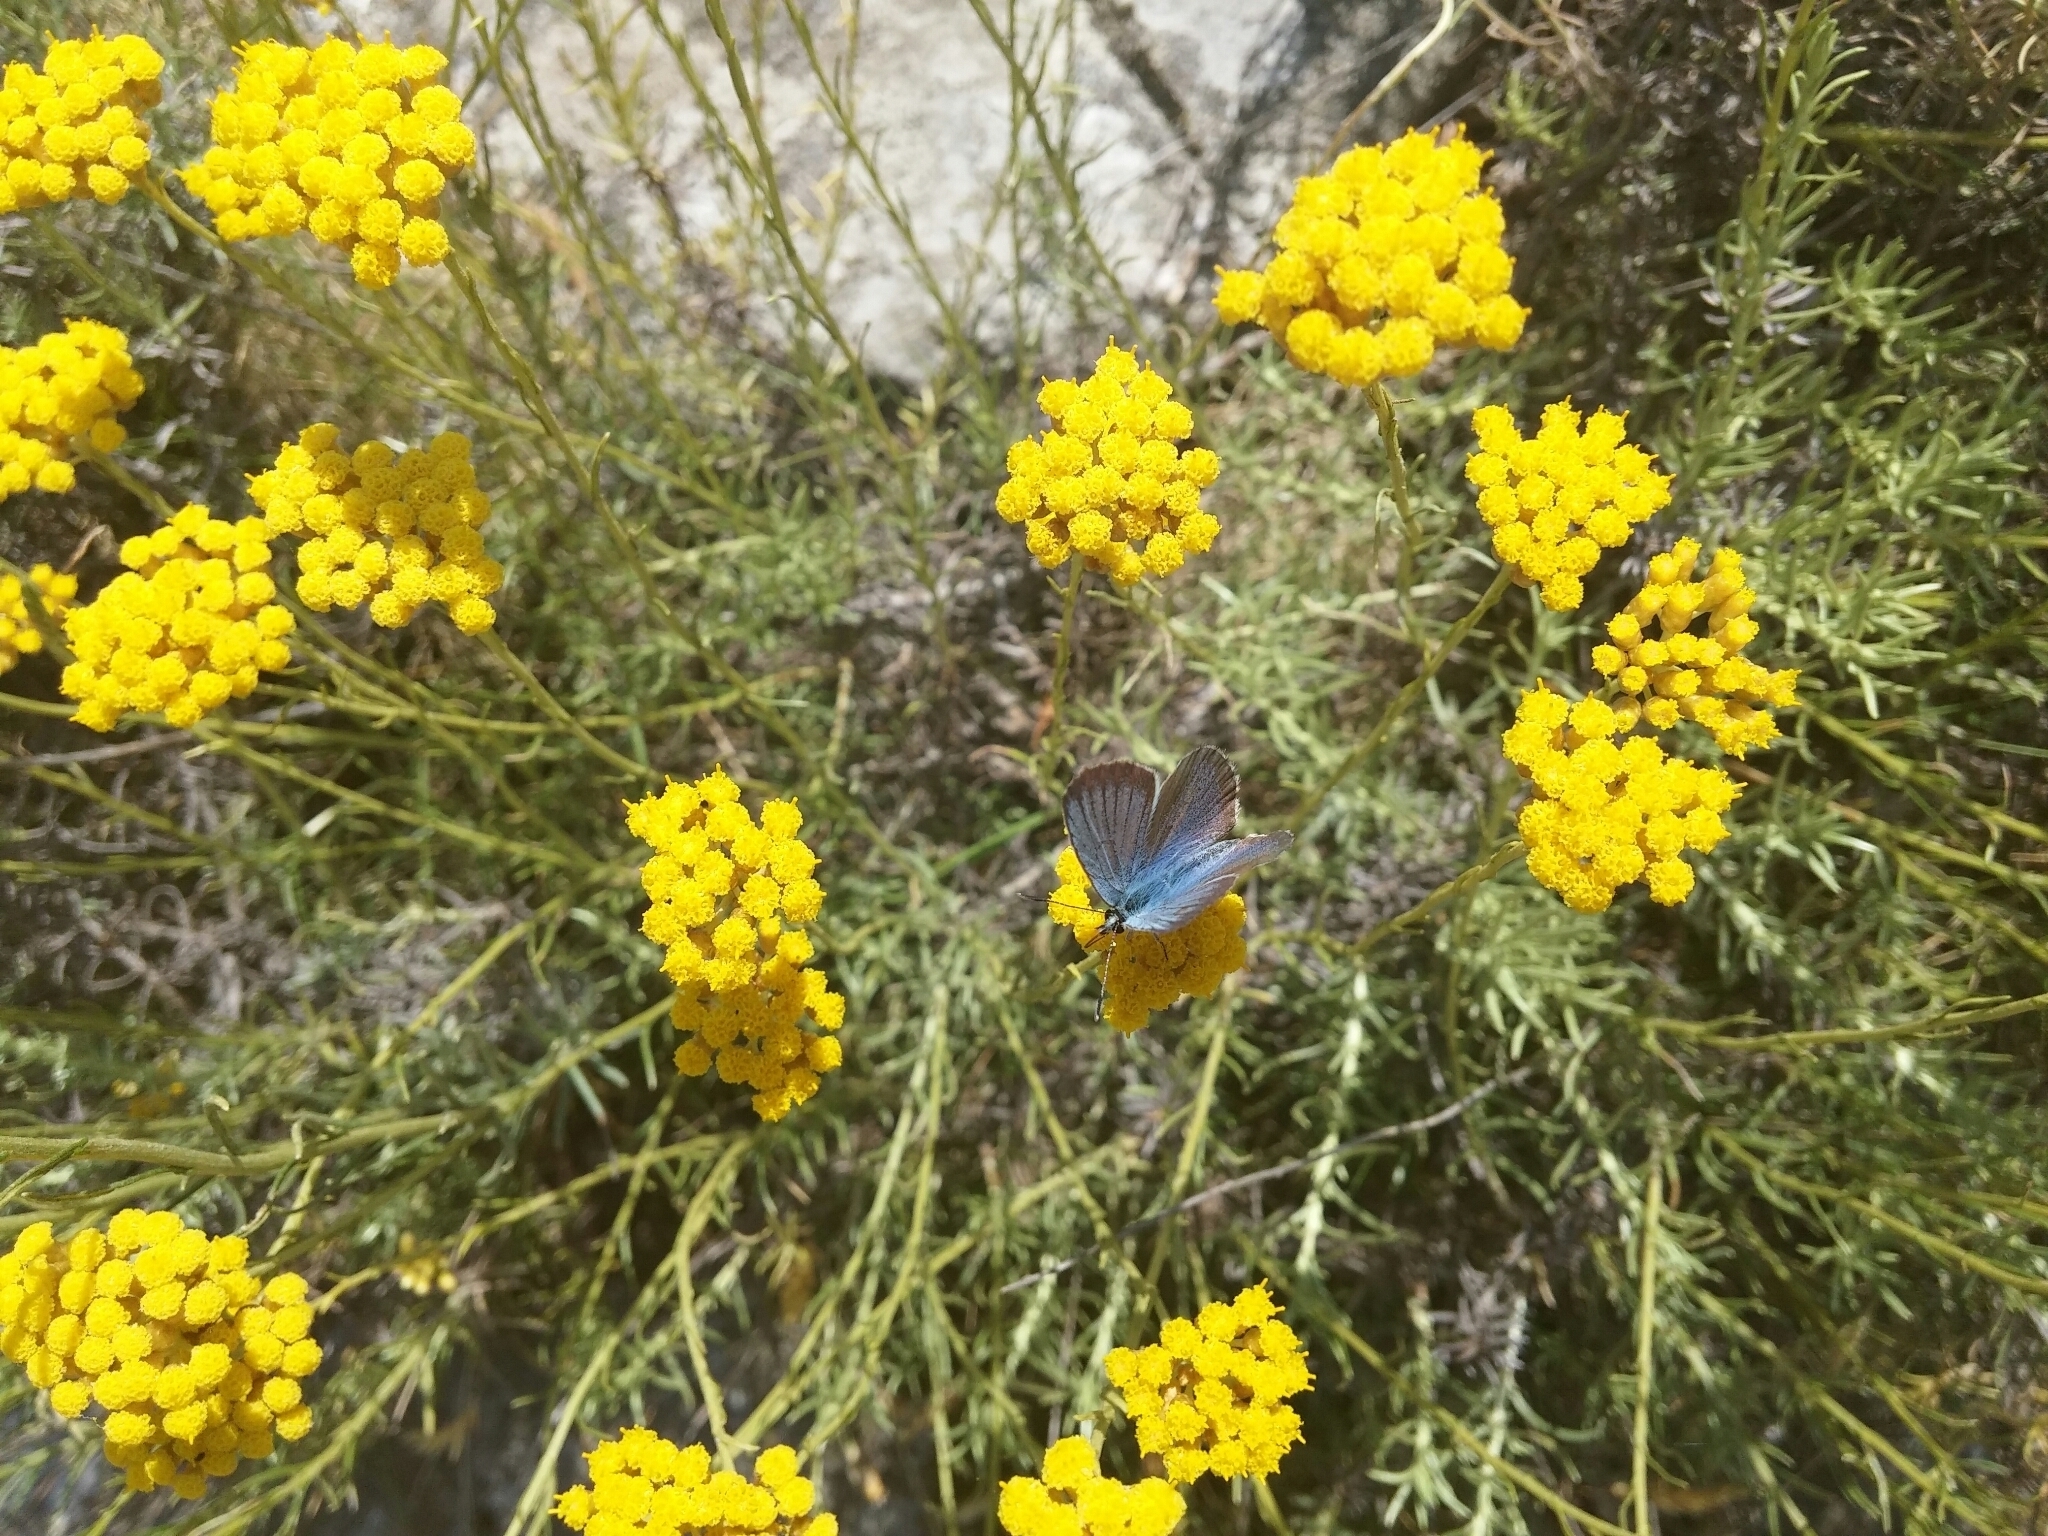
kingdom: Animalia
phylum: Arthropoda
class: Insecta
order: Lepidoptera
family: Lycaenidae
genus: Lycaeides
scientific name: Lycaeides idas
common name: Northern blue
